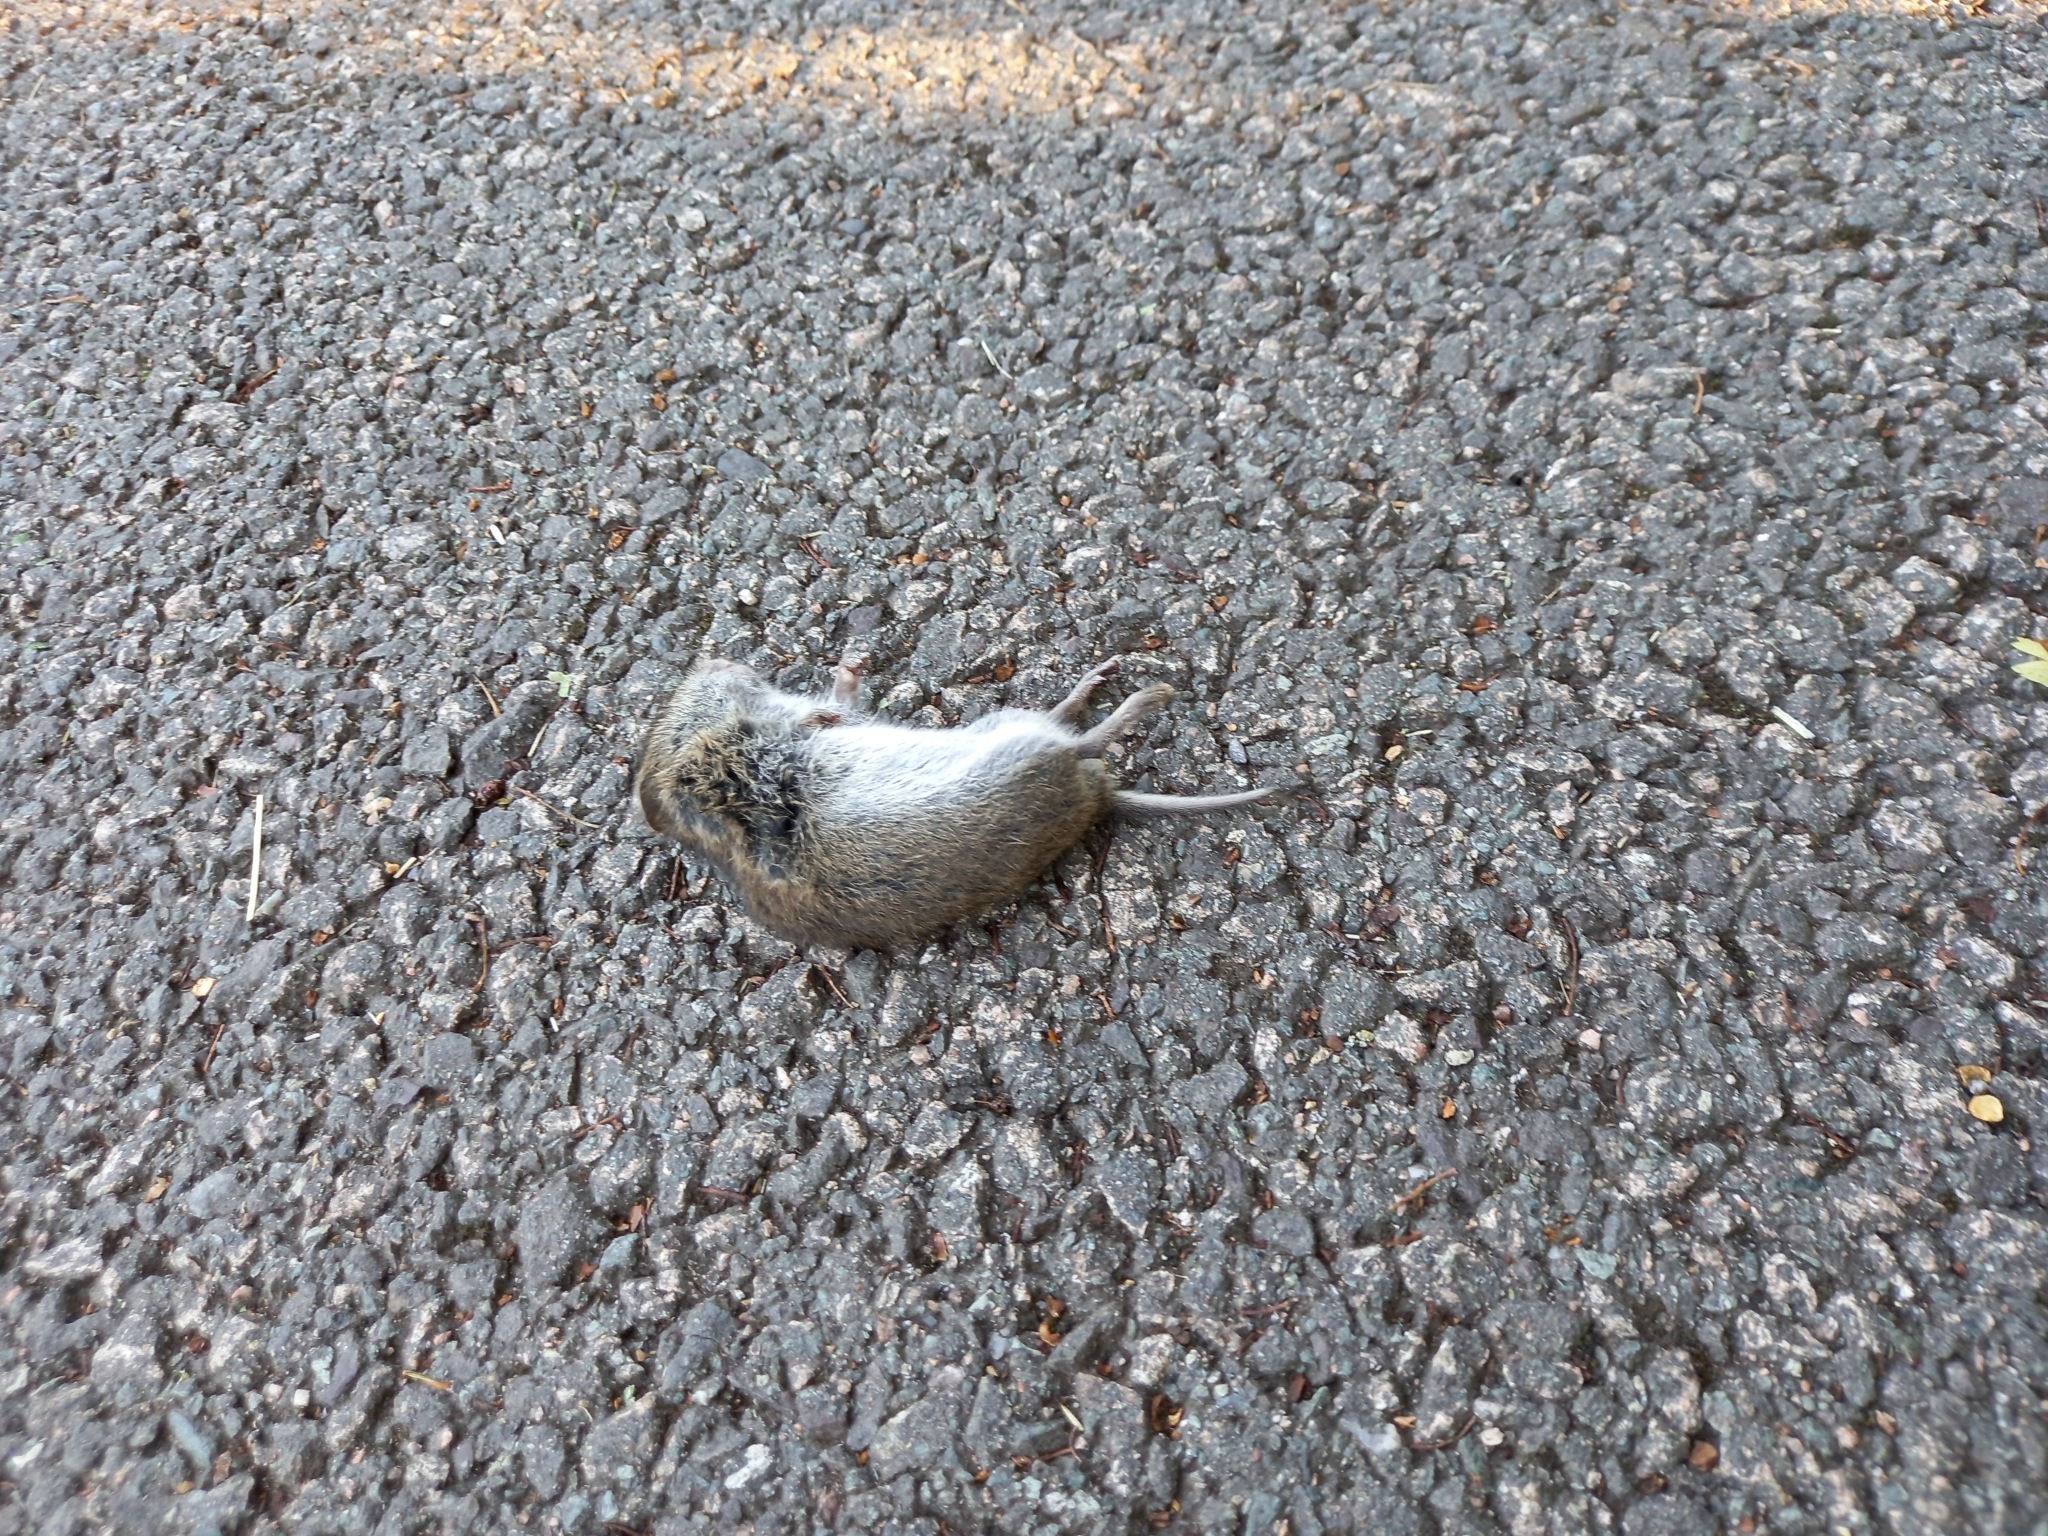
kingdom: Animalia
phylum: Chordata
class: Mammalia
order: Rodentia
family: Cricetidae
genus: Microtus
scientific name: Microtus agrestis
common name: Field vole
